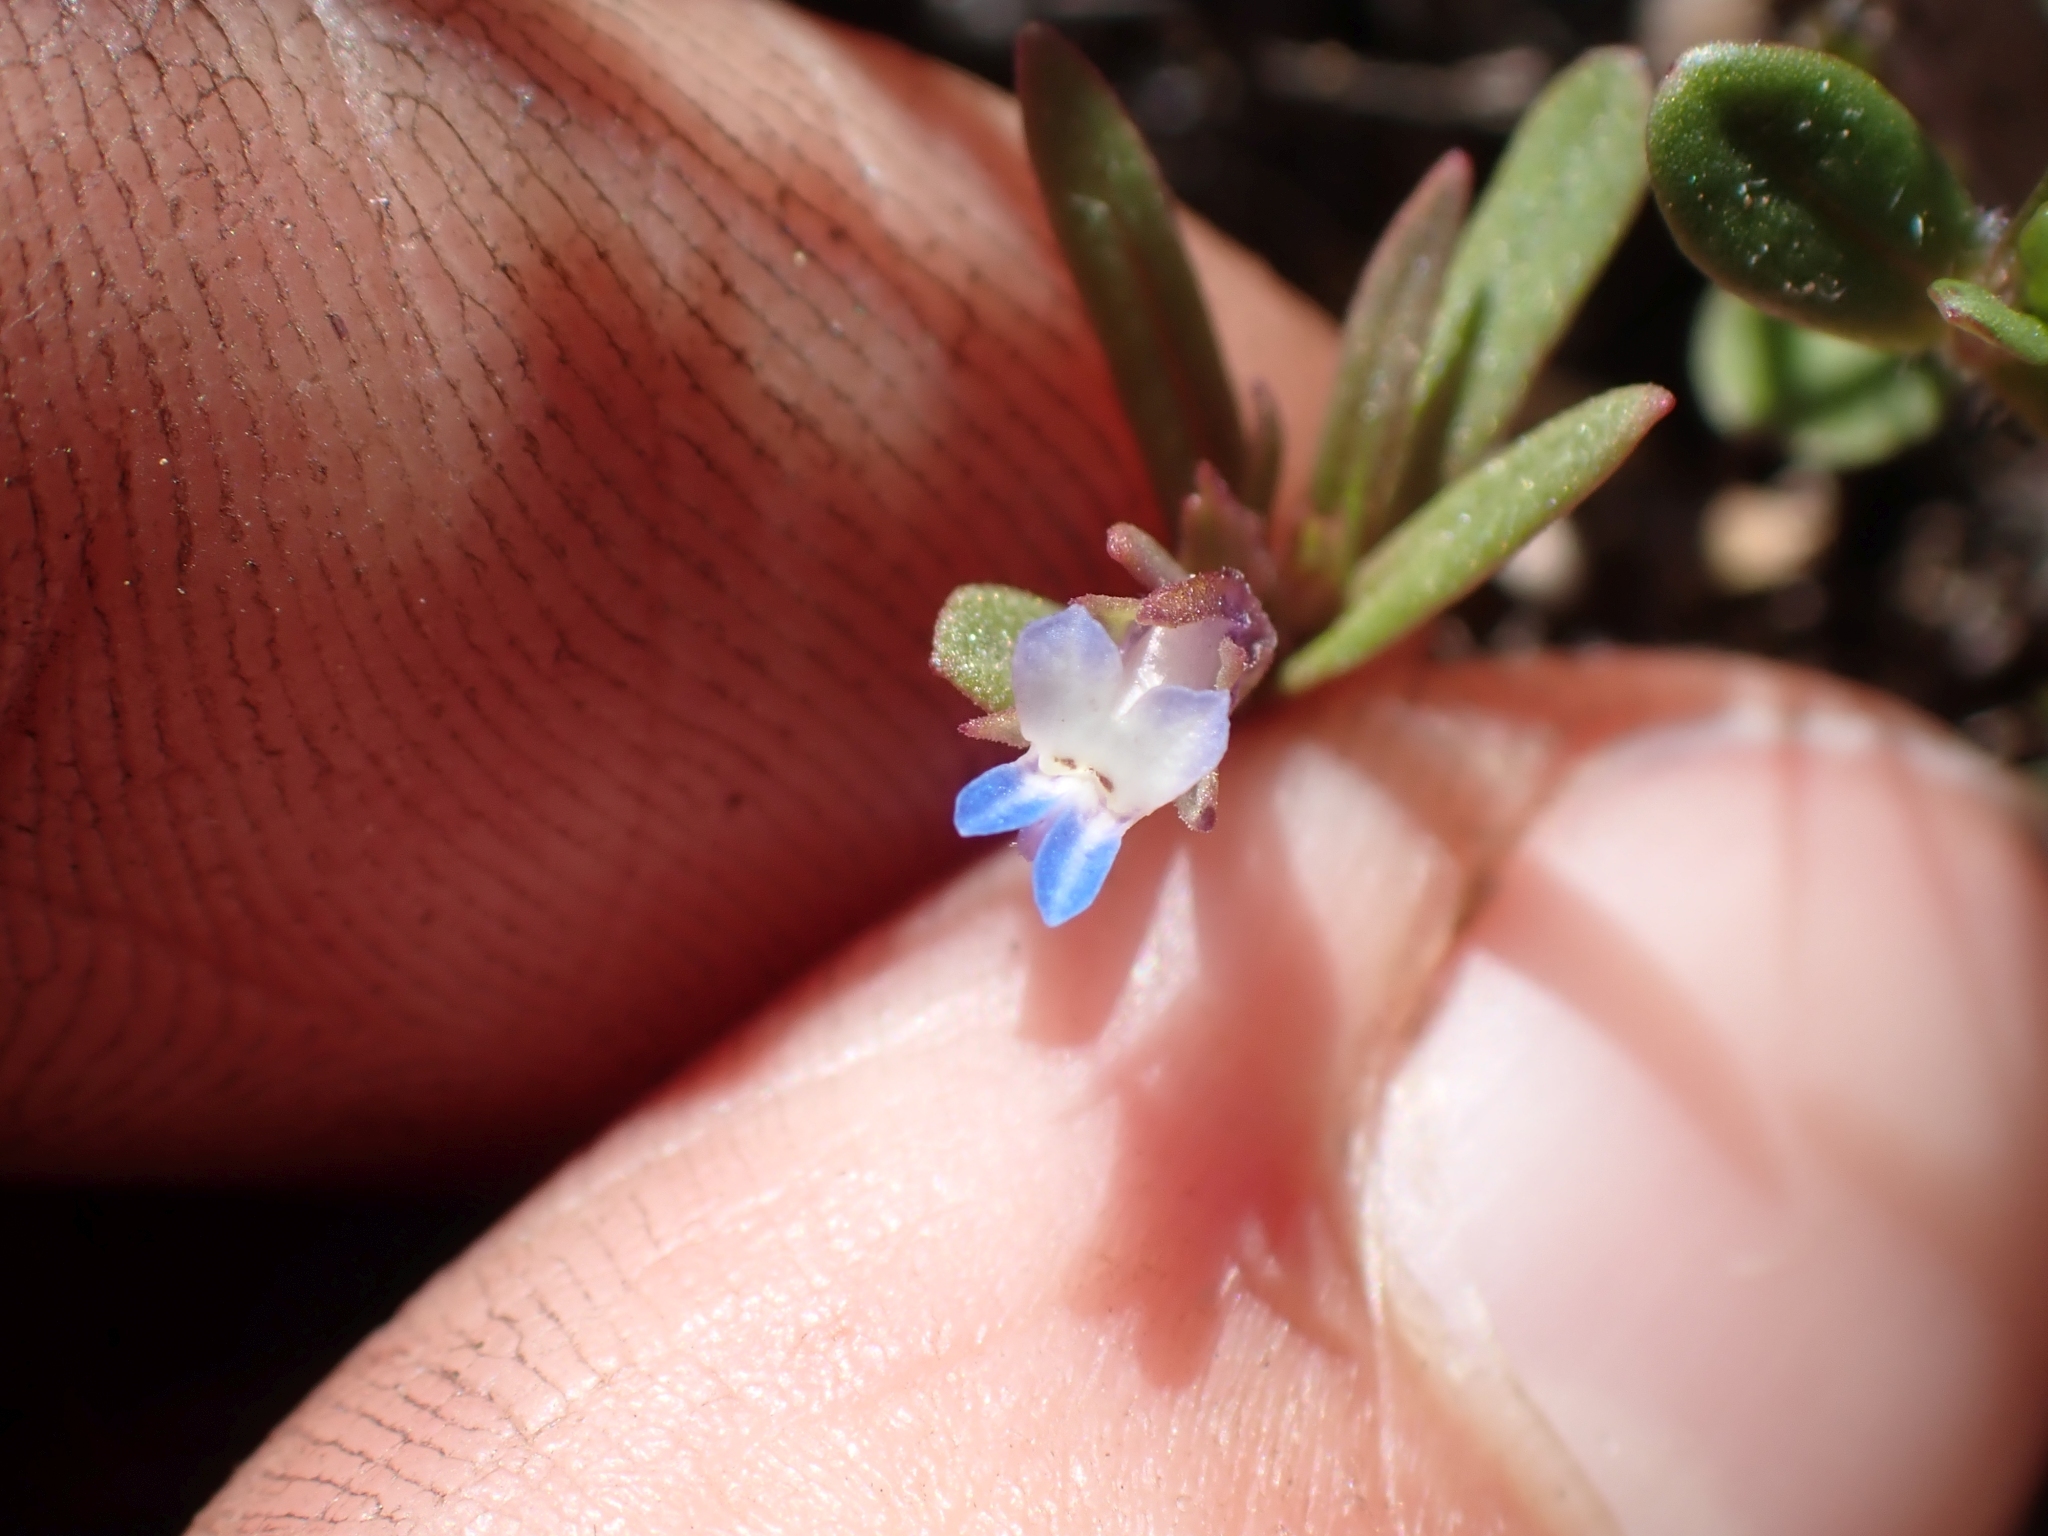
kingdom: Plantae
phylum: Tracheophyta
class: Magnoliopsida
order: Lamiales
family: Plantaginaceae
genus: Collinsia
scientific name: Collinsia parviflora
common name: Blue-lips
